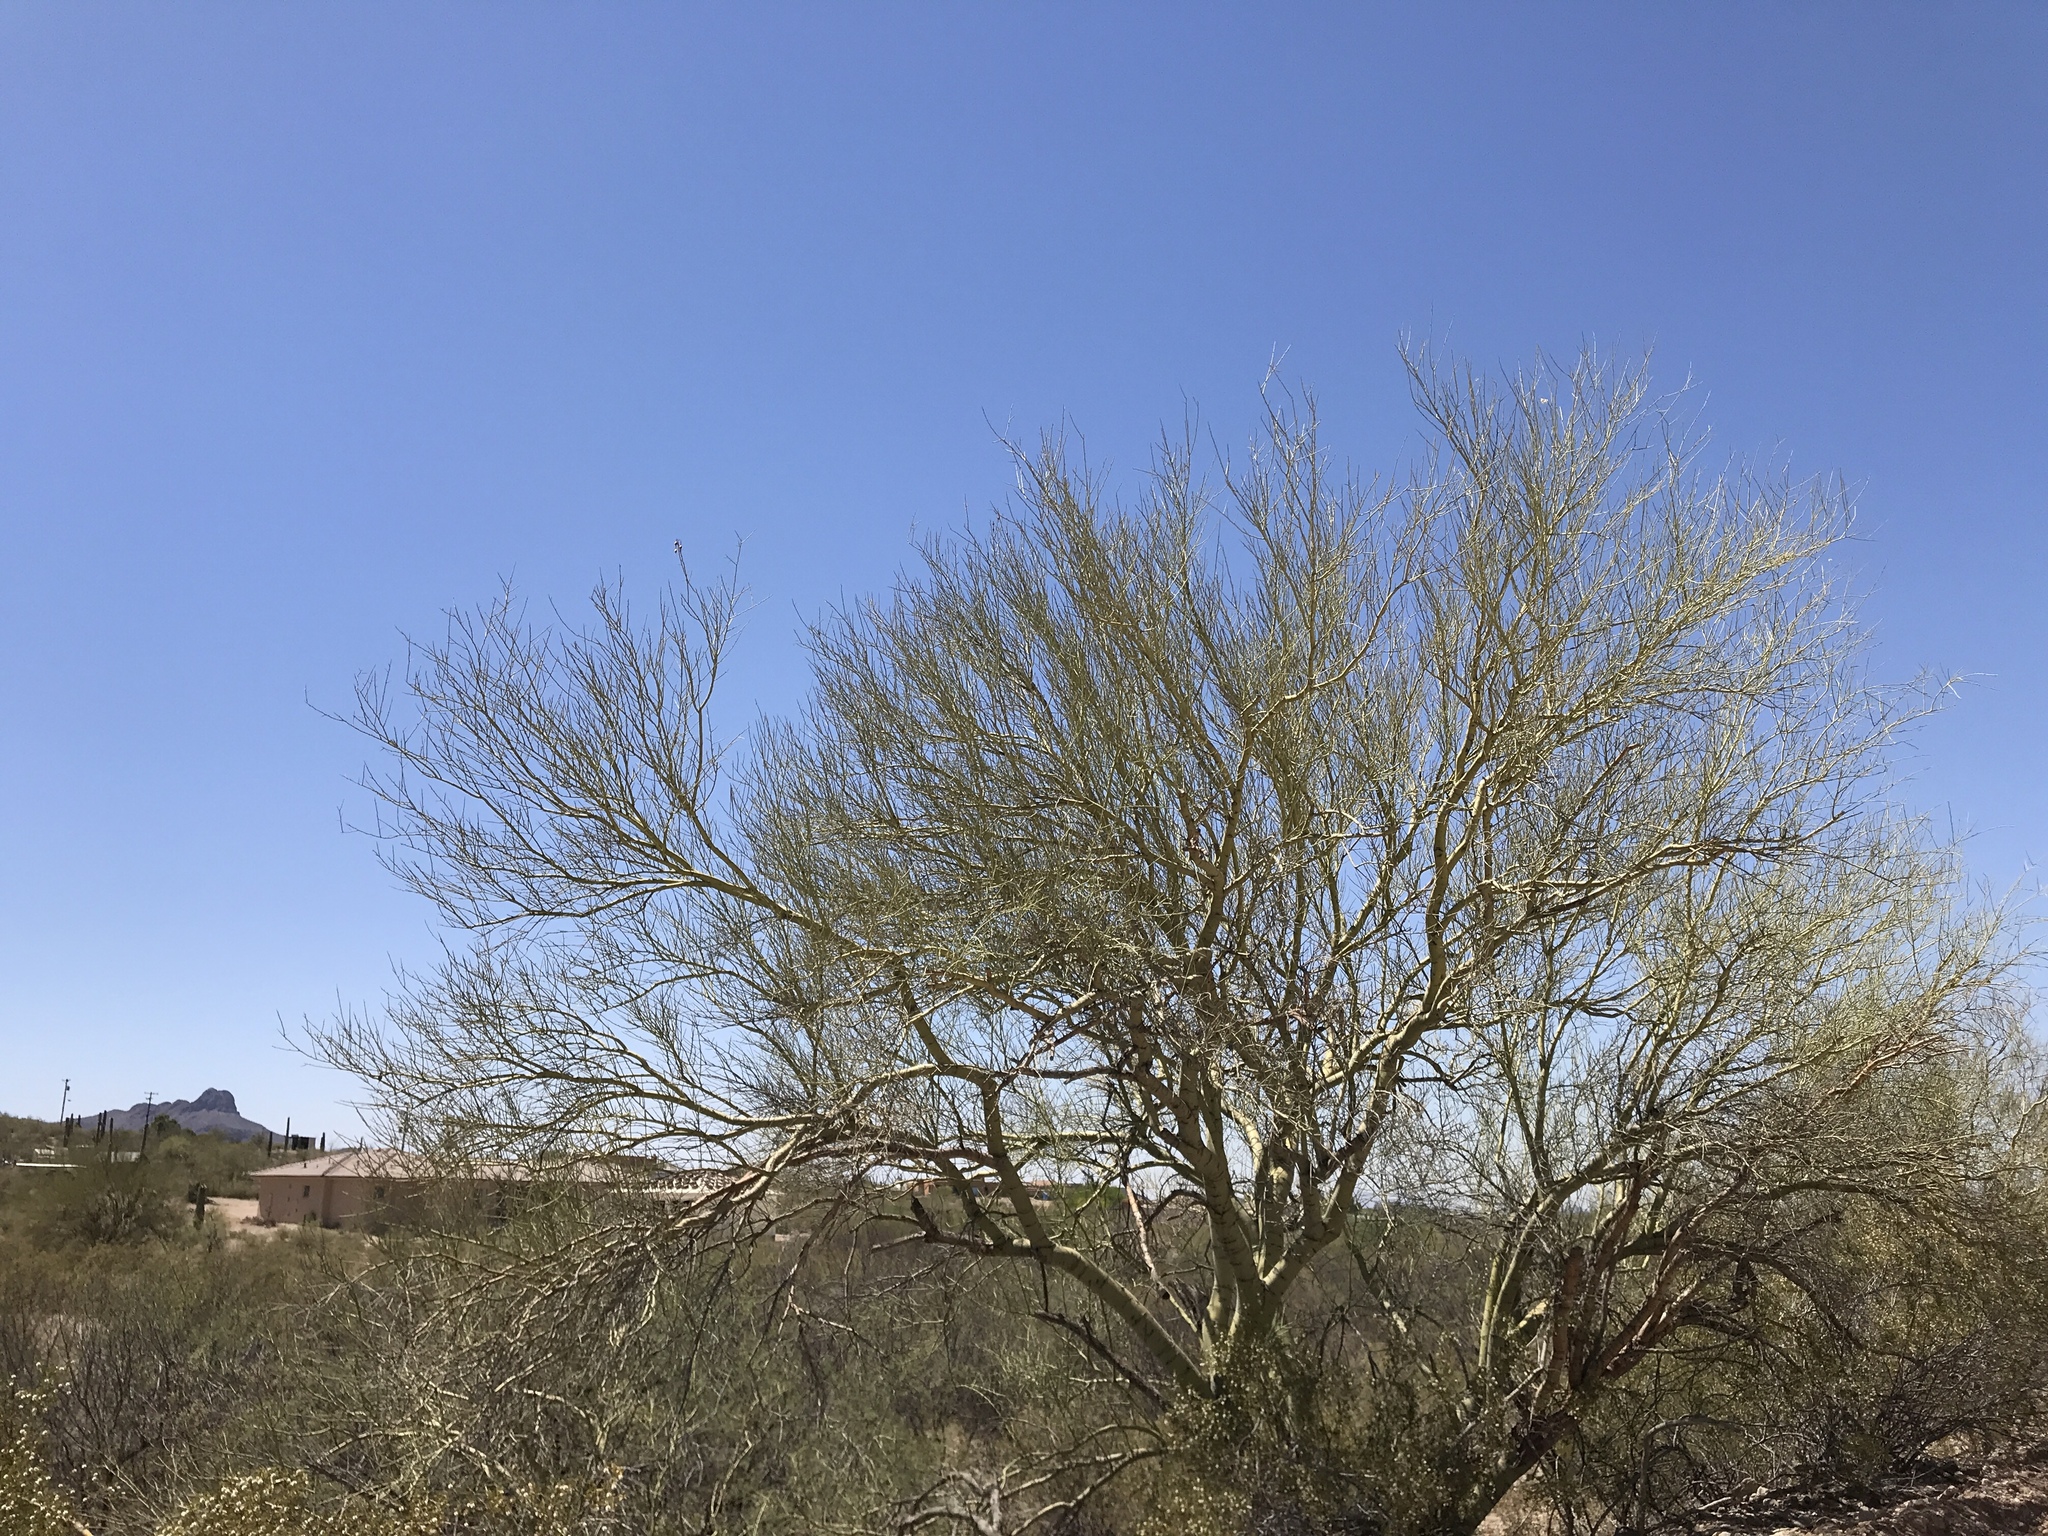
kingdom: Plantae
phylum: Tracheophyta
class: Magnoliopsida
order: Fabales
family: Fabaceae
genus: Parkinsonia
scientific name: Parkinsonia microphylla
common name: Yellow paloverde
